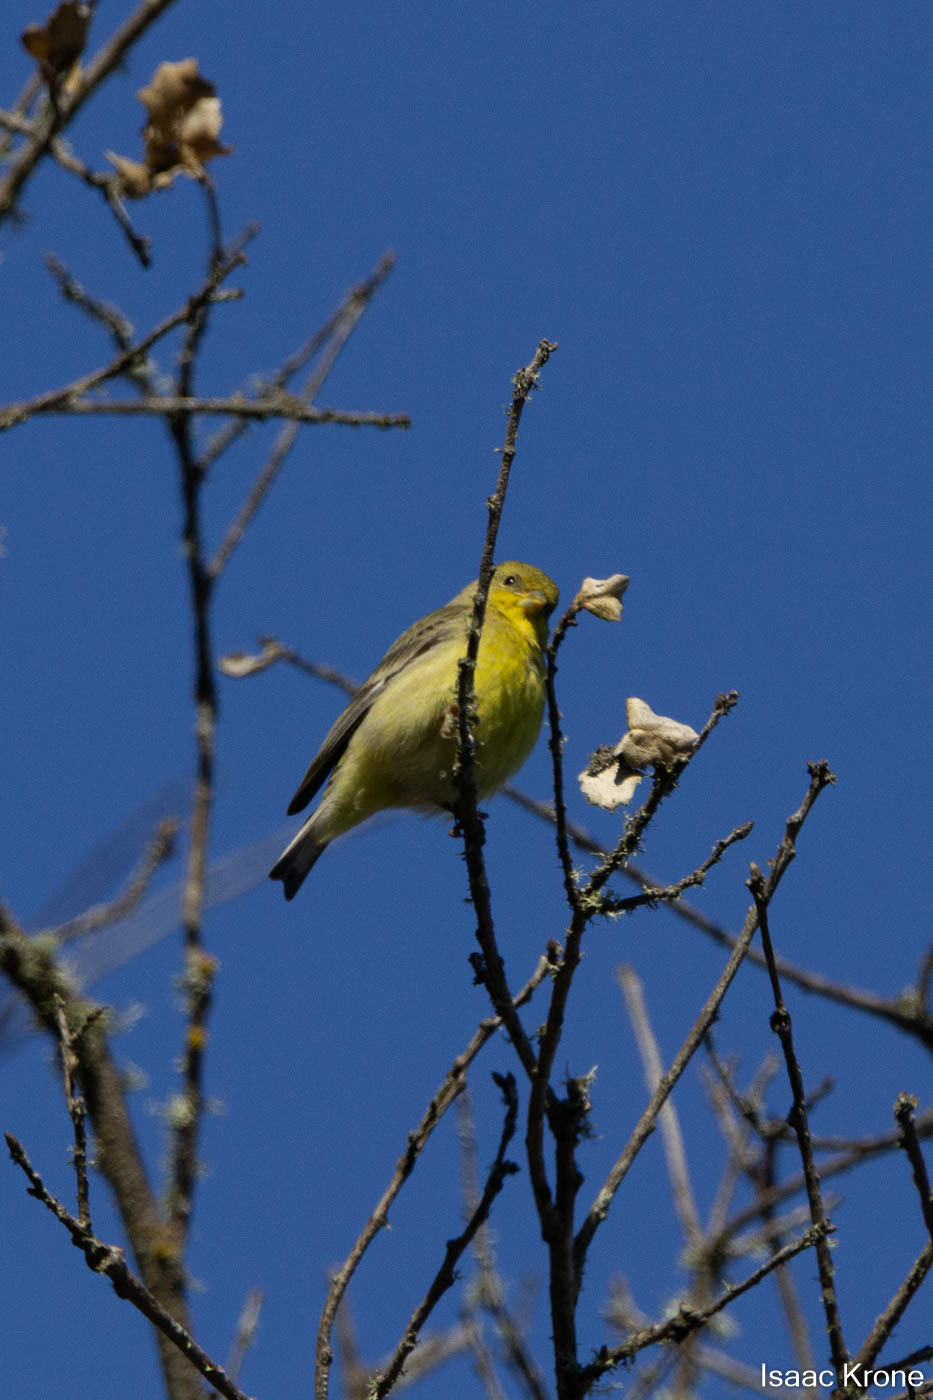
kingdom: Animalia
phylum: Chordata
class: Aves
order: Passeriformes
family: Fringillidae
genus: Spinus
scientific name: Spinus psaltria
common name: Lesser goldfinch
